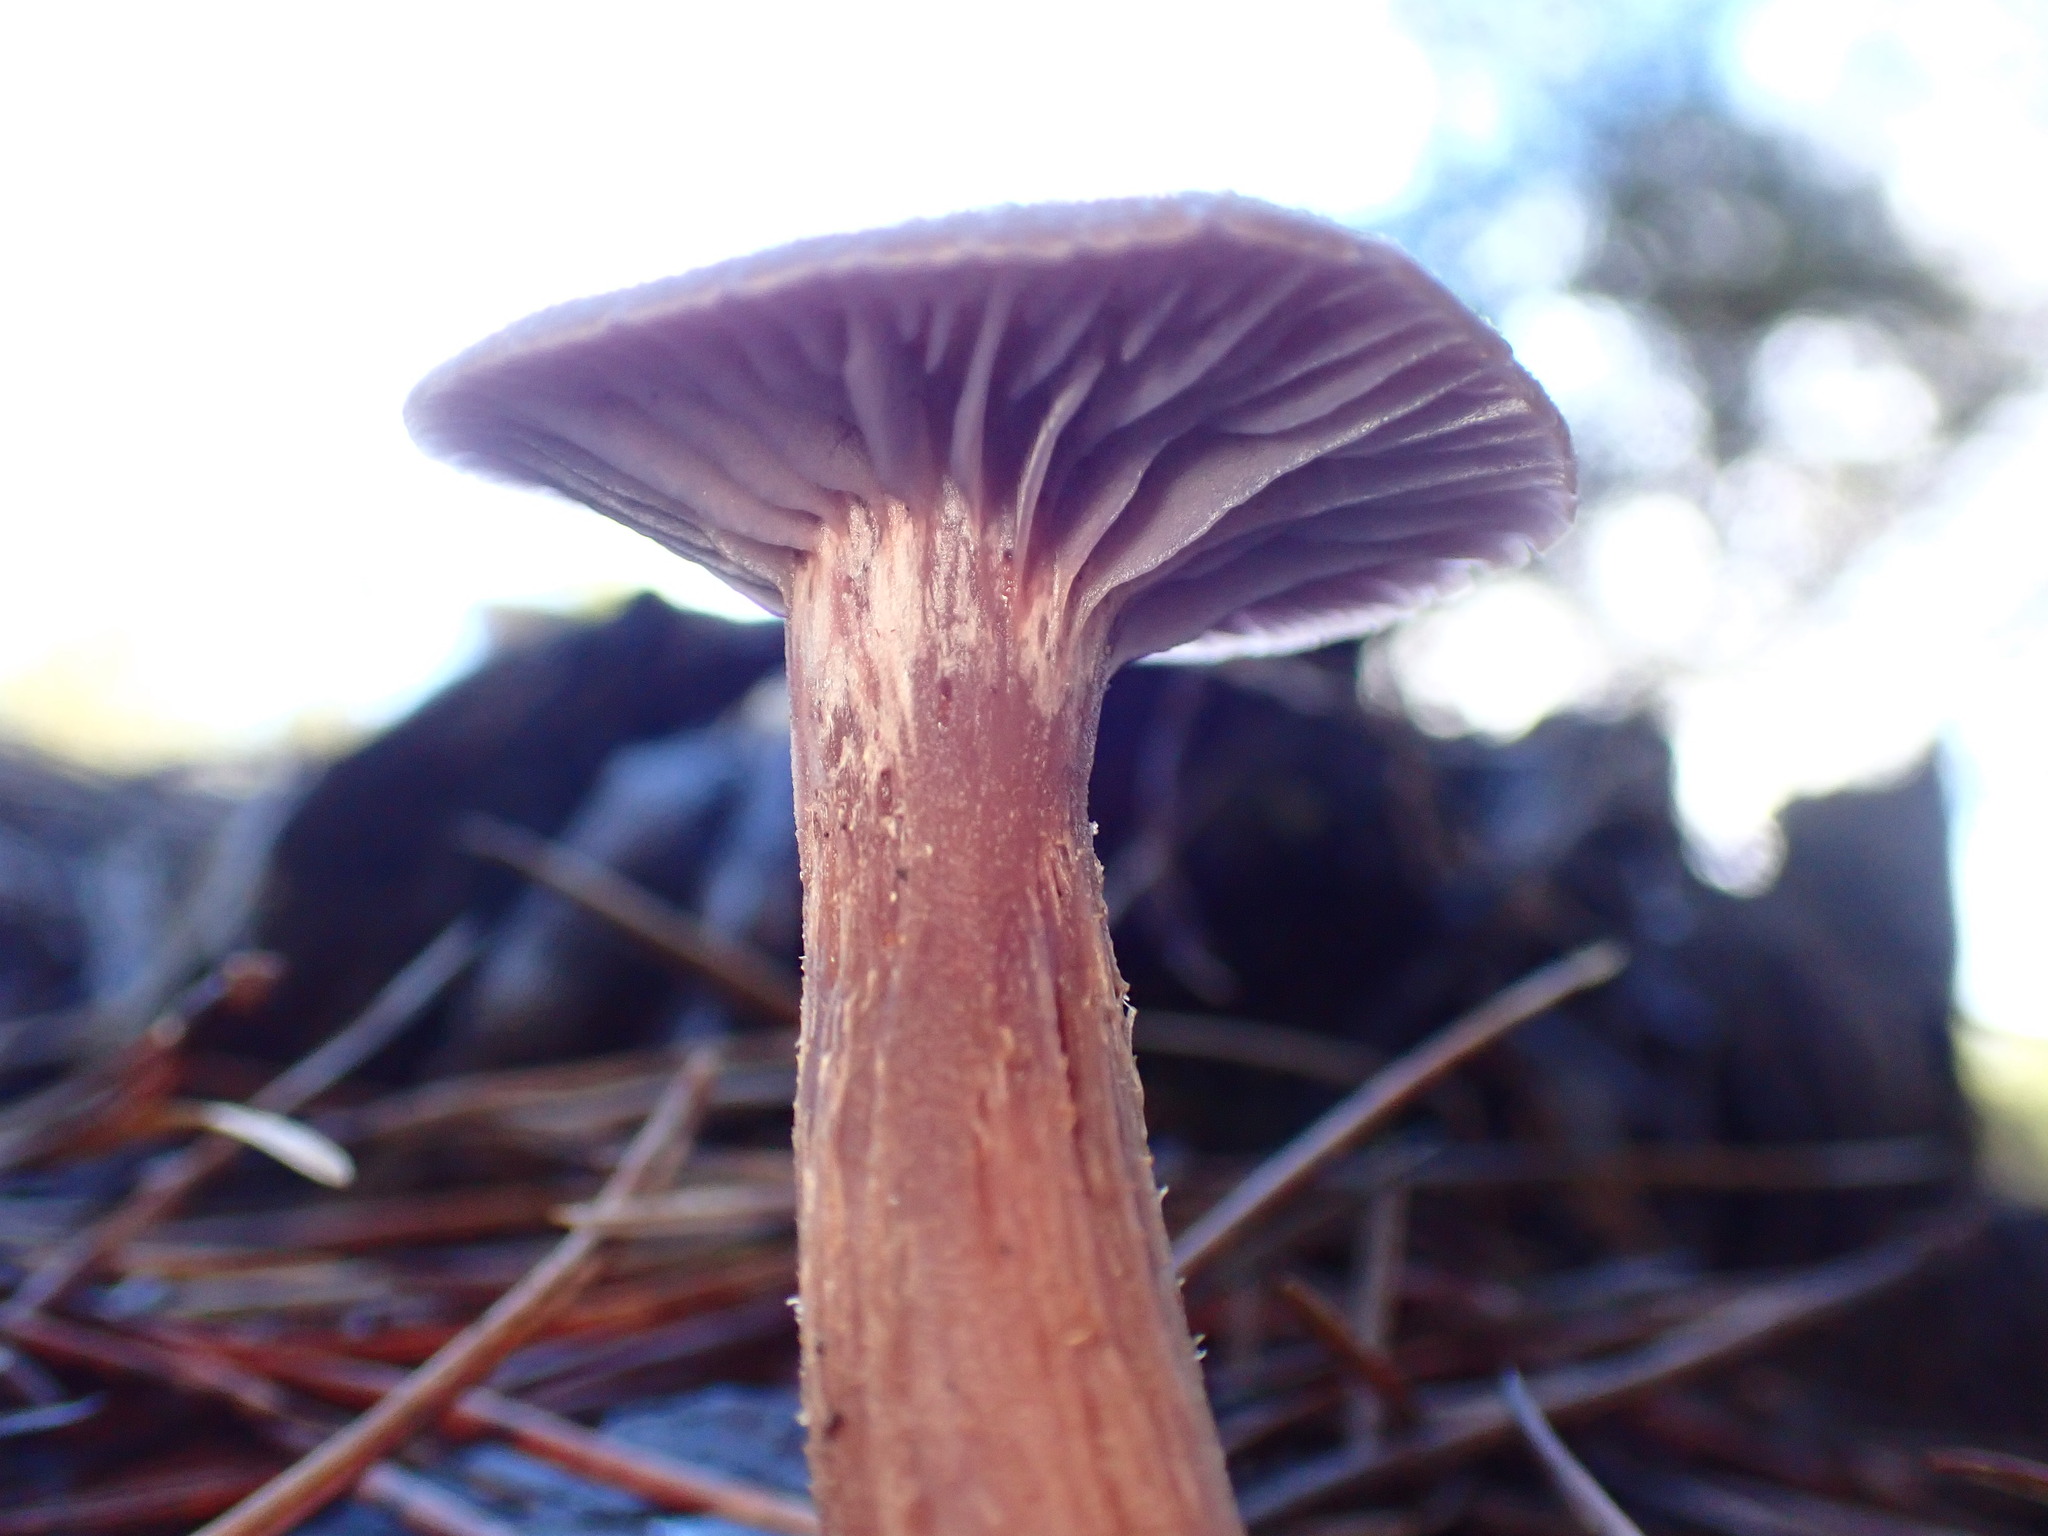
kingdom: Fungi
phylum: Basidiomycota
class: Agaricomycetes
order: Agaricales
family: Hydnangiaceae
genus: Laccaria
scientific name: Laccaria amethysteo-occidentalis
